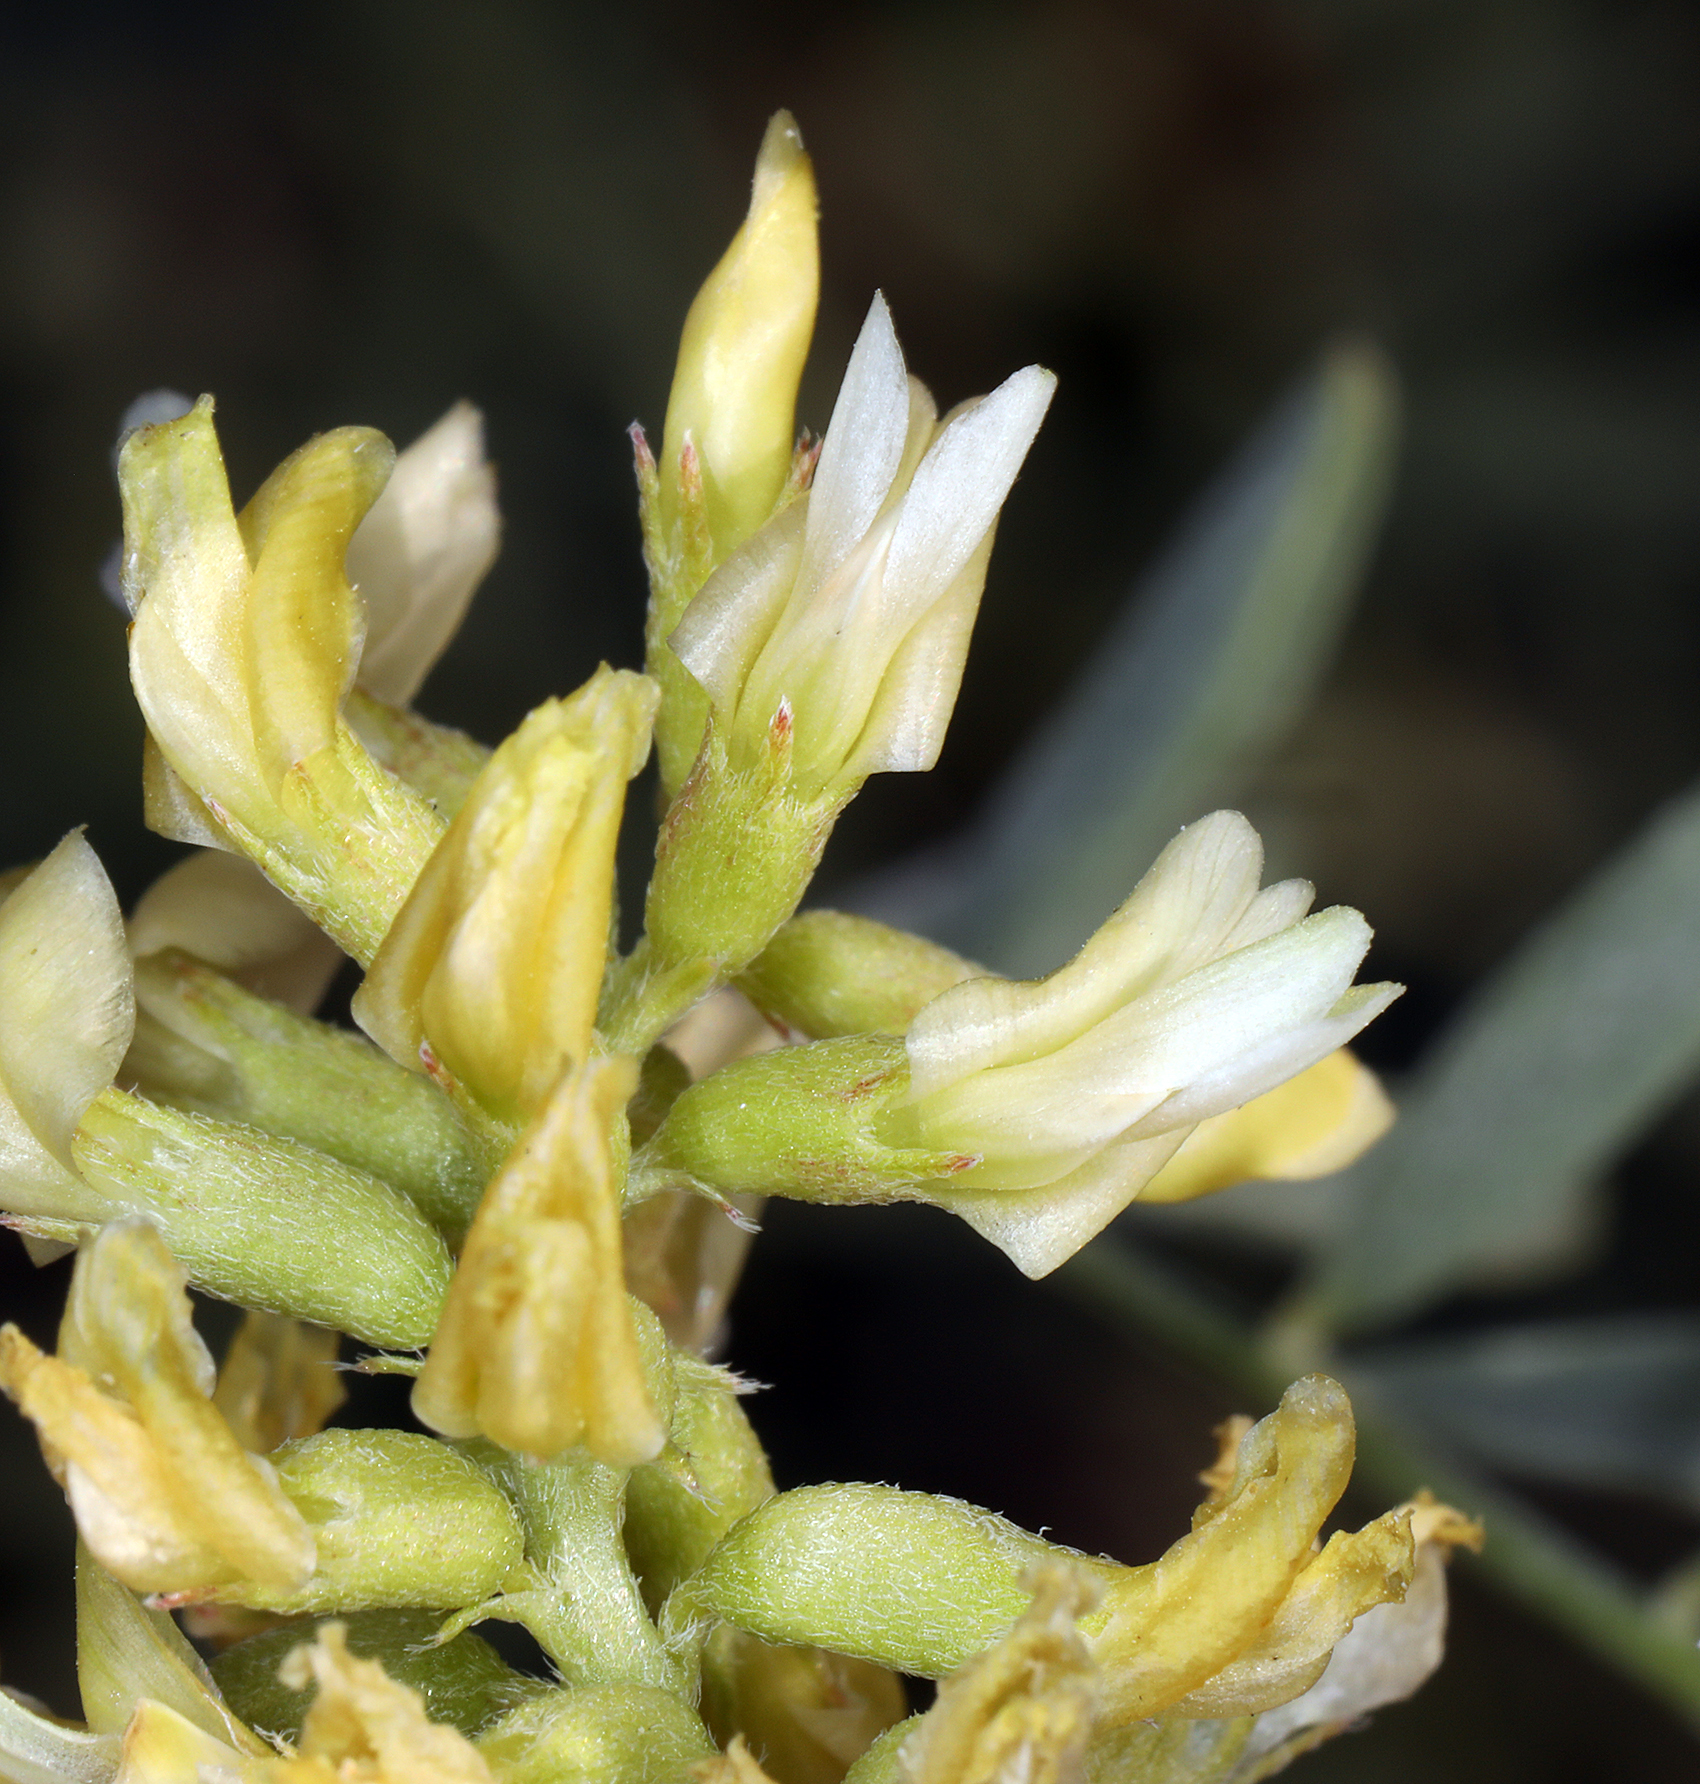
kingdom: Plantae
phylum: Tracheophyta
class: Magnoliopsida
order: Fabales
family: Fabaceae
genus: Astragalus
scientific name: Astragalus lentiginosus
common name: Freckled milkvetch
